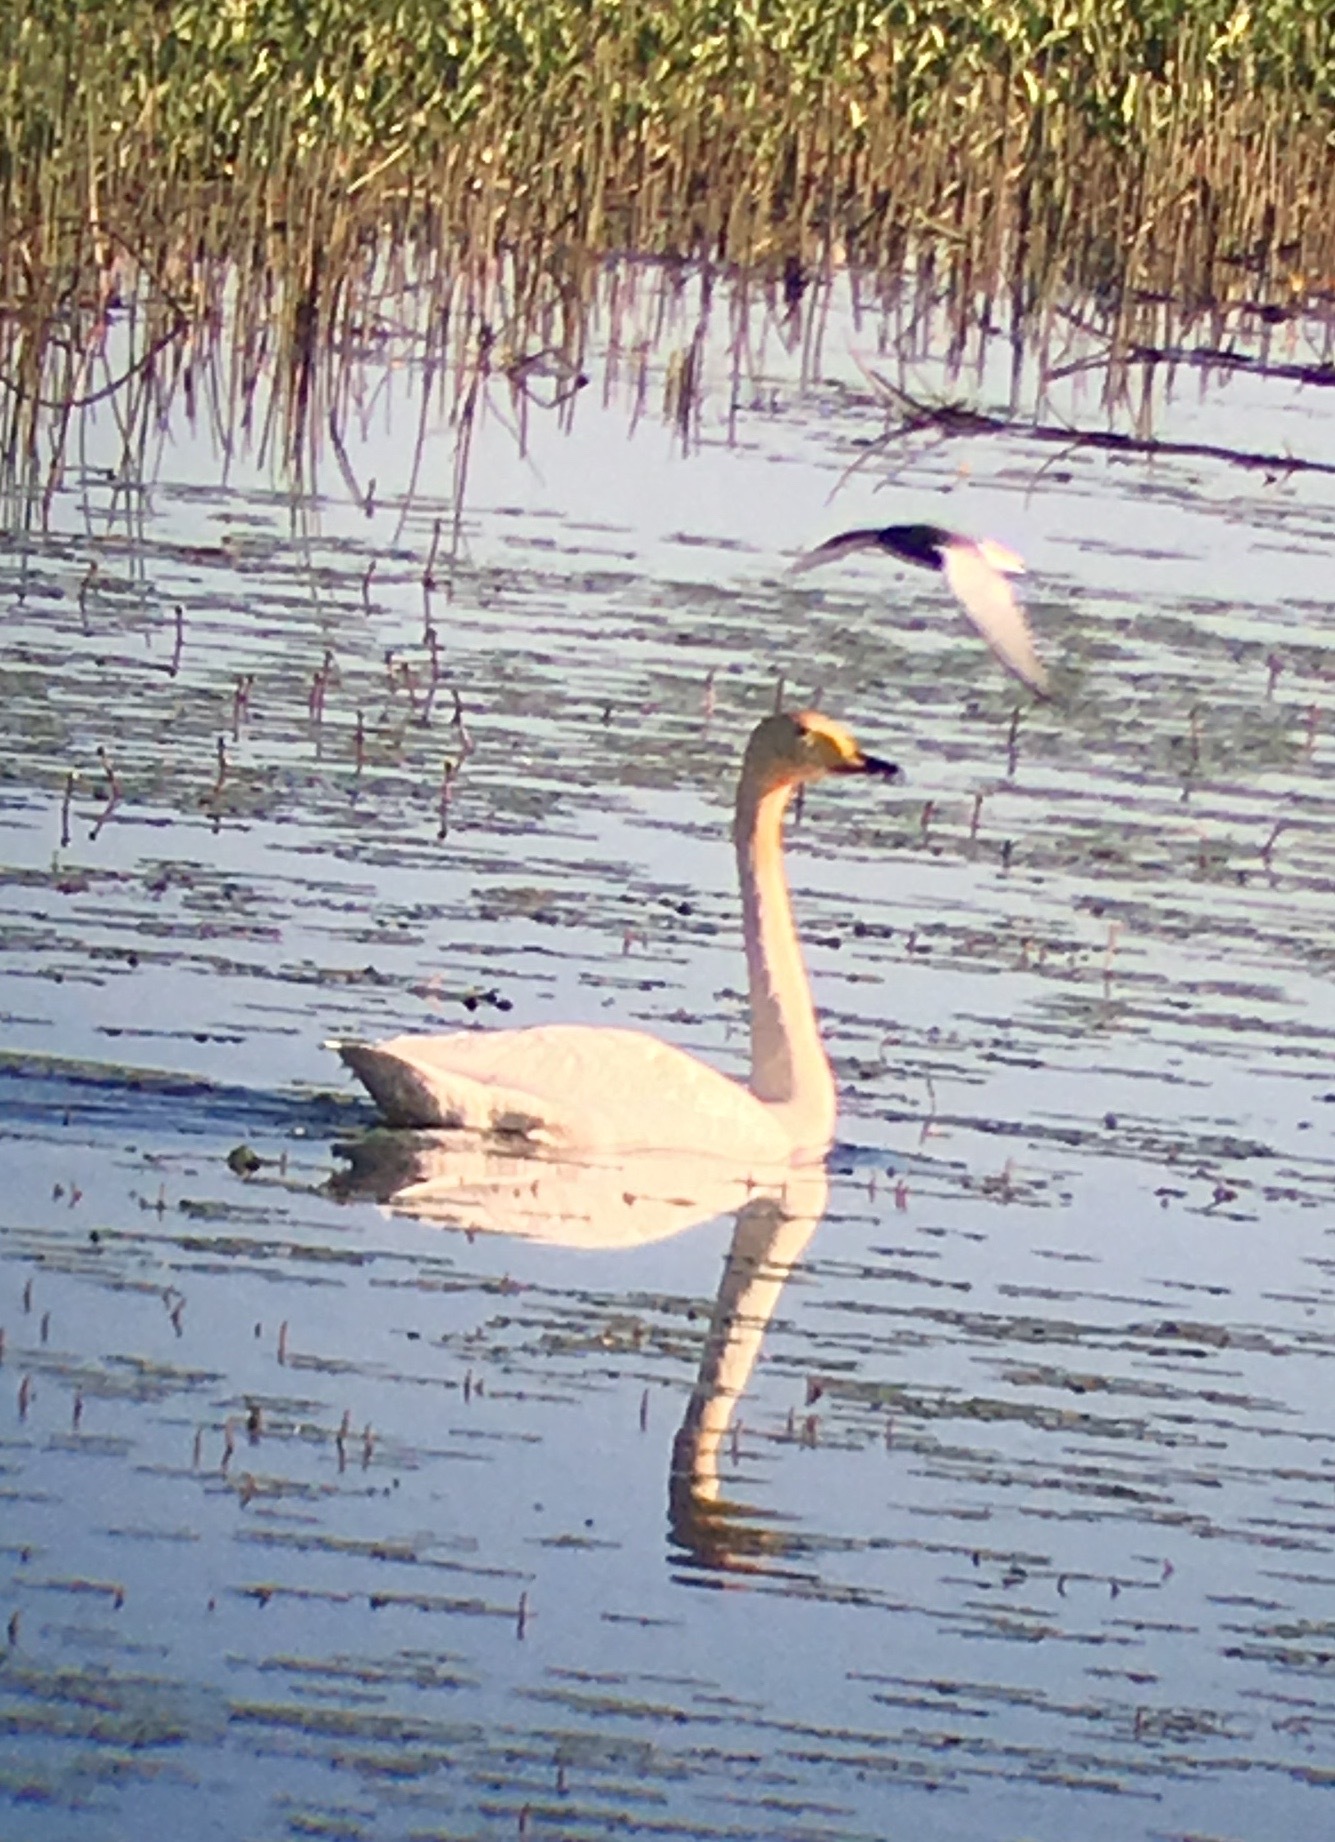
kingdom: Animalia
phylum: Chordata
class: Aves
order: Charadriiformes
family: Laridae
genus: Chlidonias
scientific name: Chlidonias leucopterus
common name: White-winged tern
